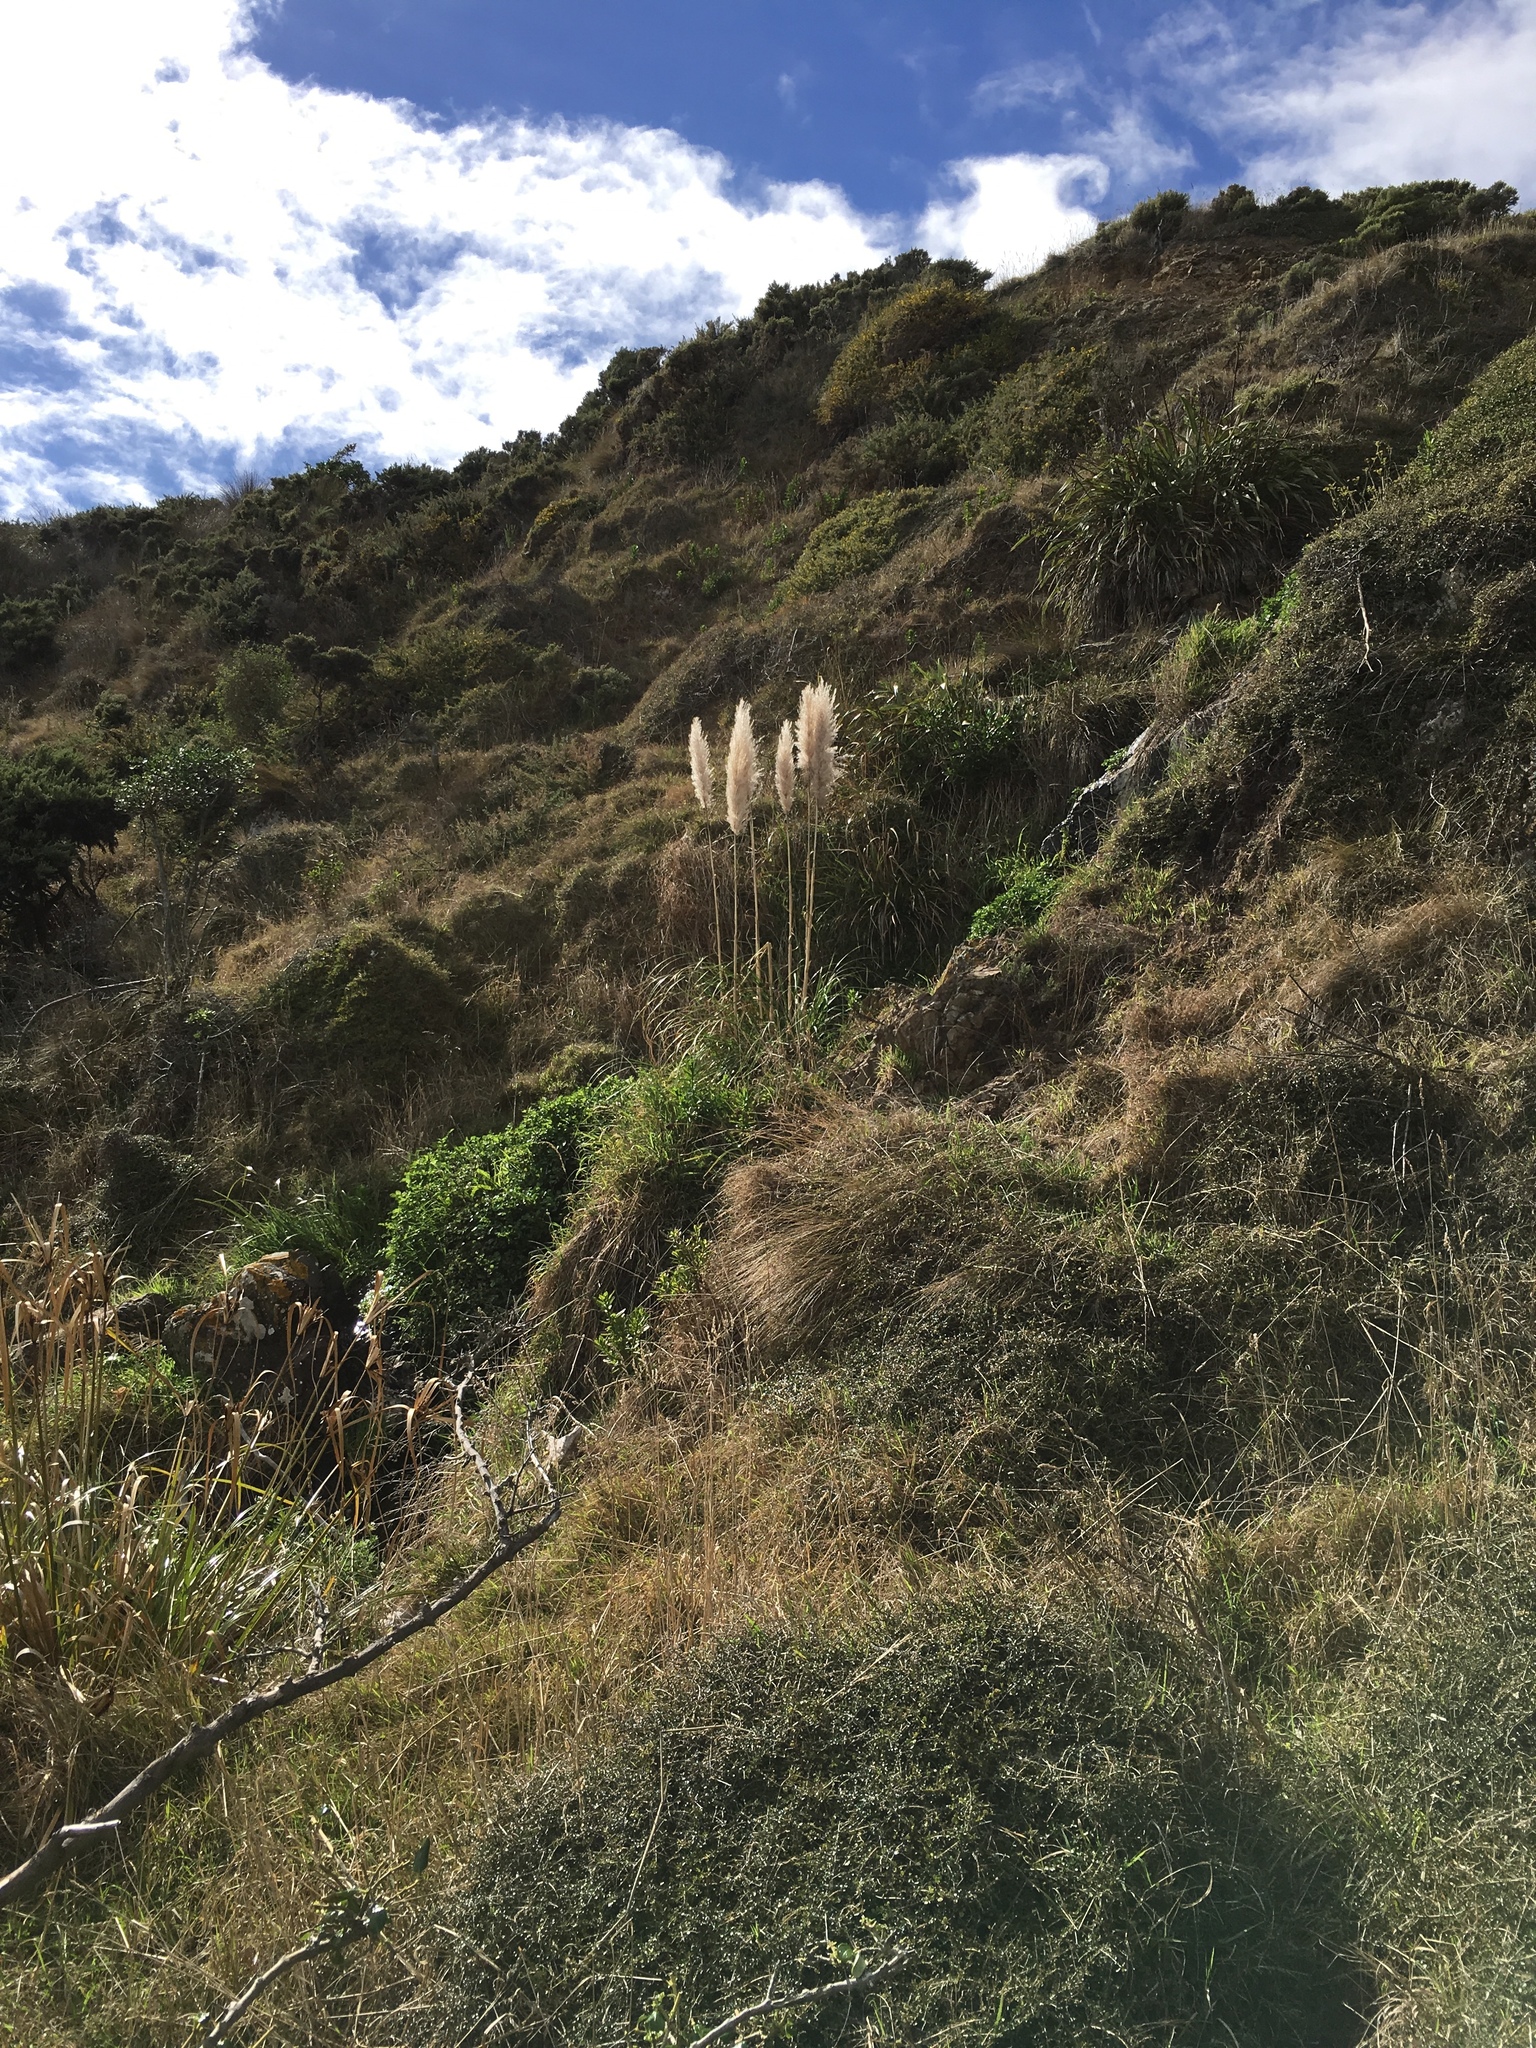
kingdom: Plantae
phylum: Tracheophyta
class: Liliopsida
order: Poales
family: Poaceae
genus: Cortaderia
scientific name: Cortaderia selloana
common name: Uruguayan pampas grass
